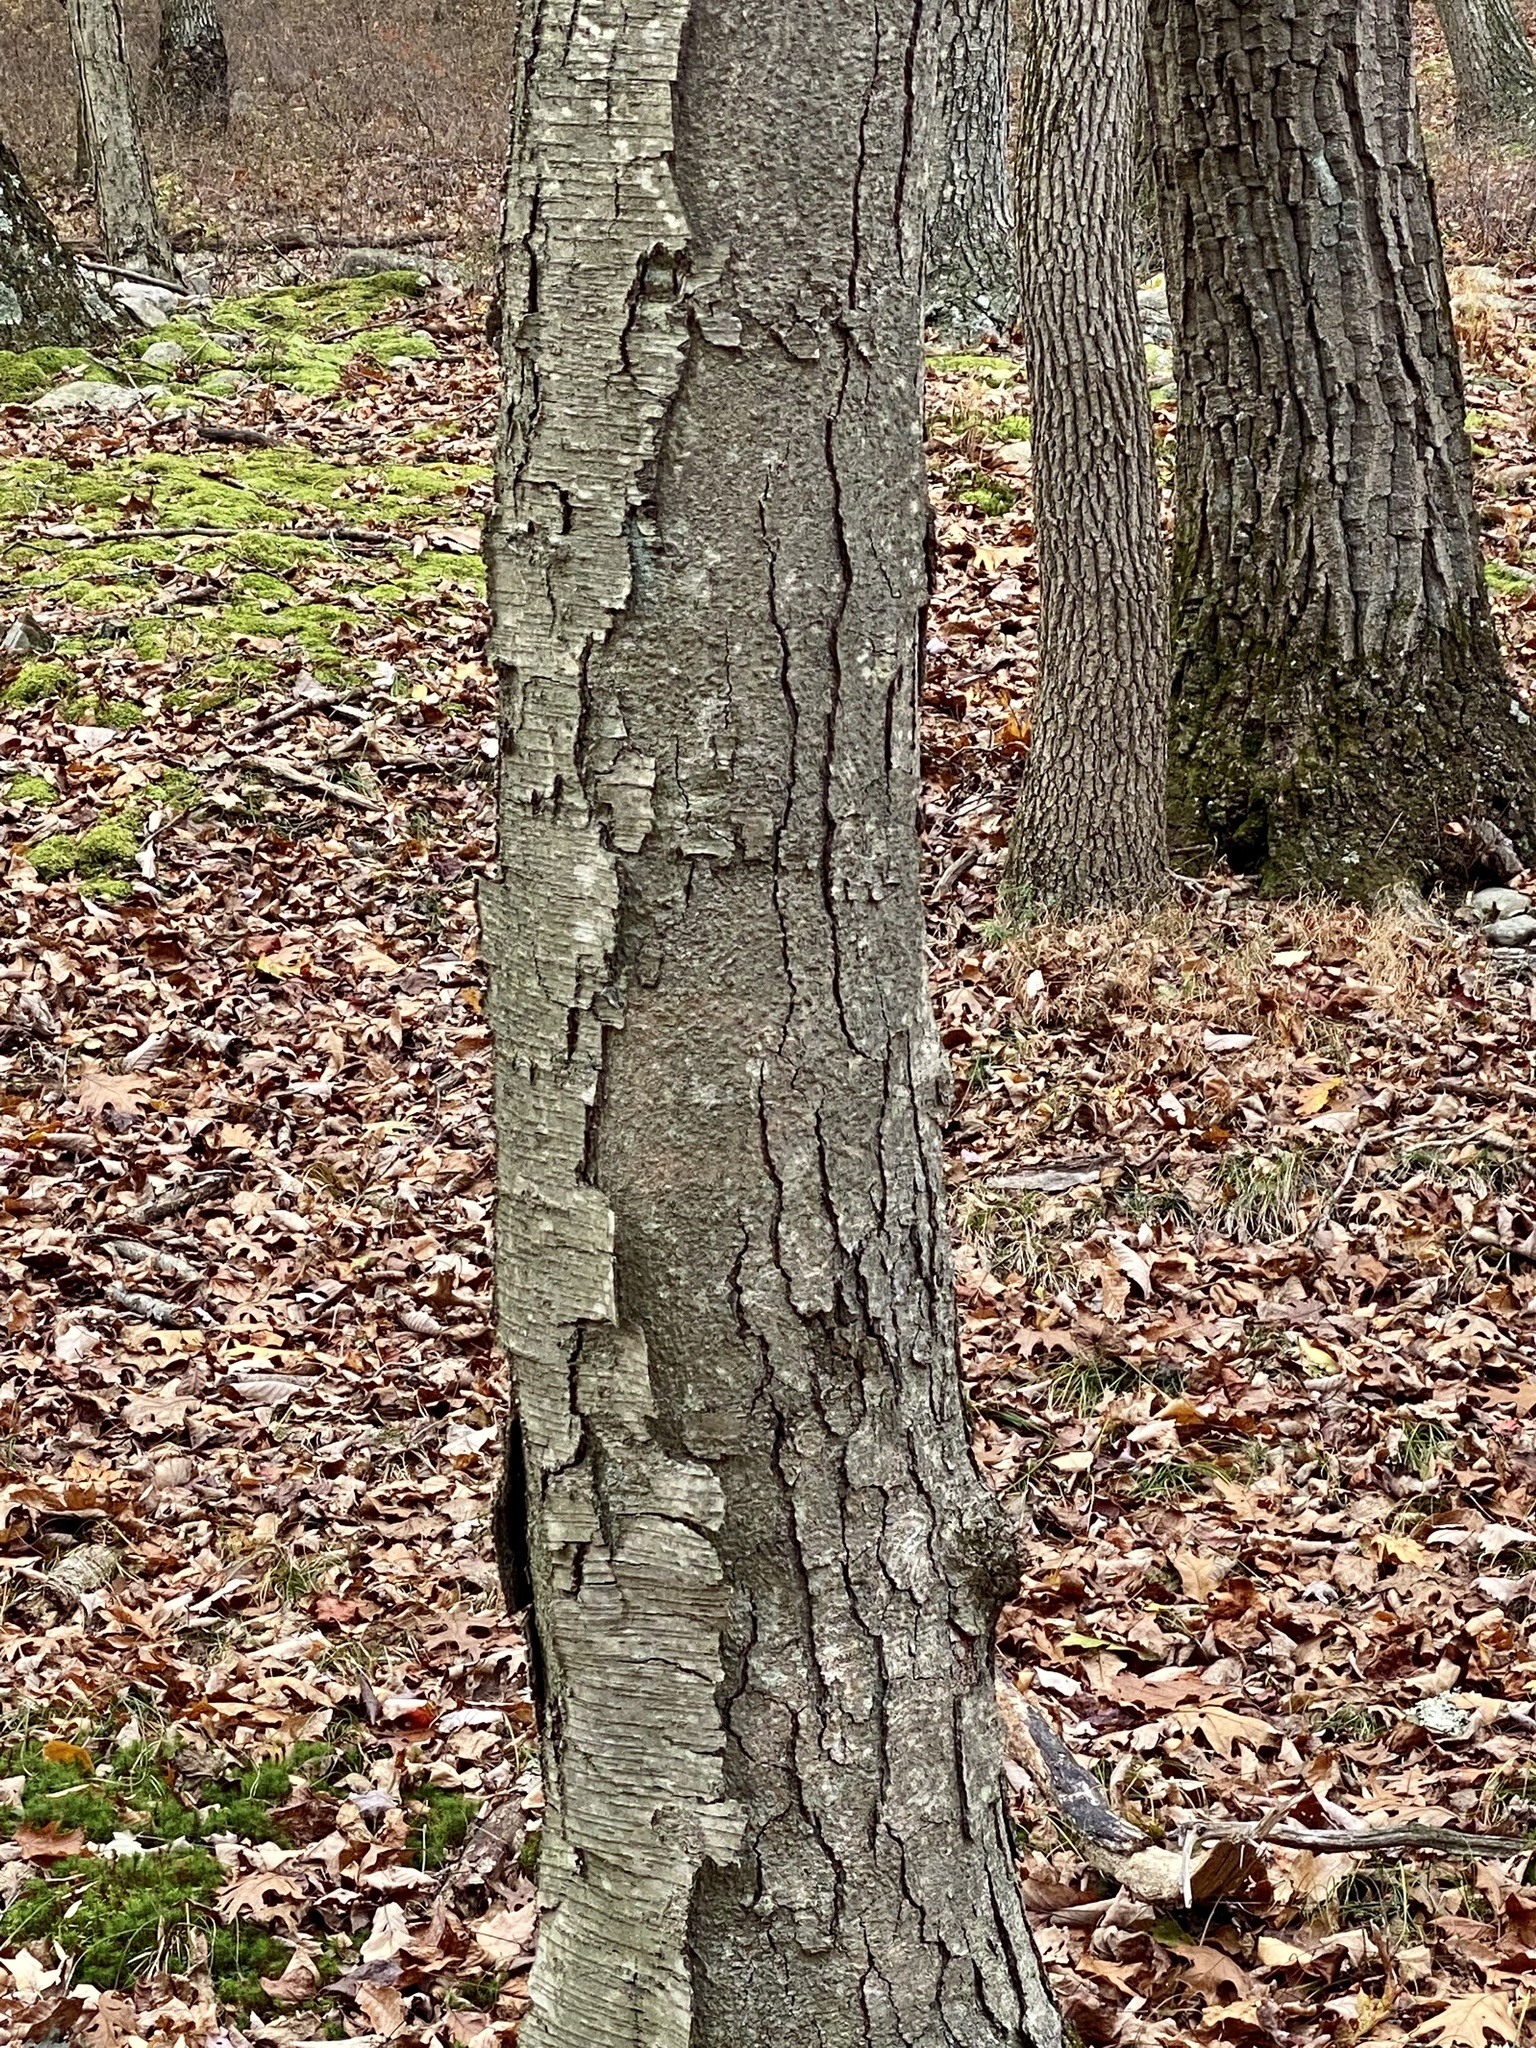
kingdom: Plantae
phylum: Tracheophyta
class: Magnoliopsida
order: Fagales
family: Betulaceae
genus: Betula
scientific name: Betula lenta
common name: Black birch
